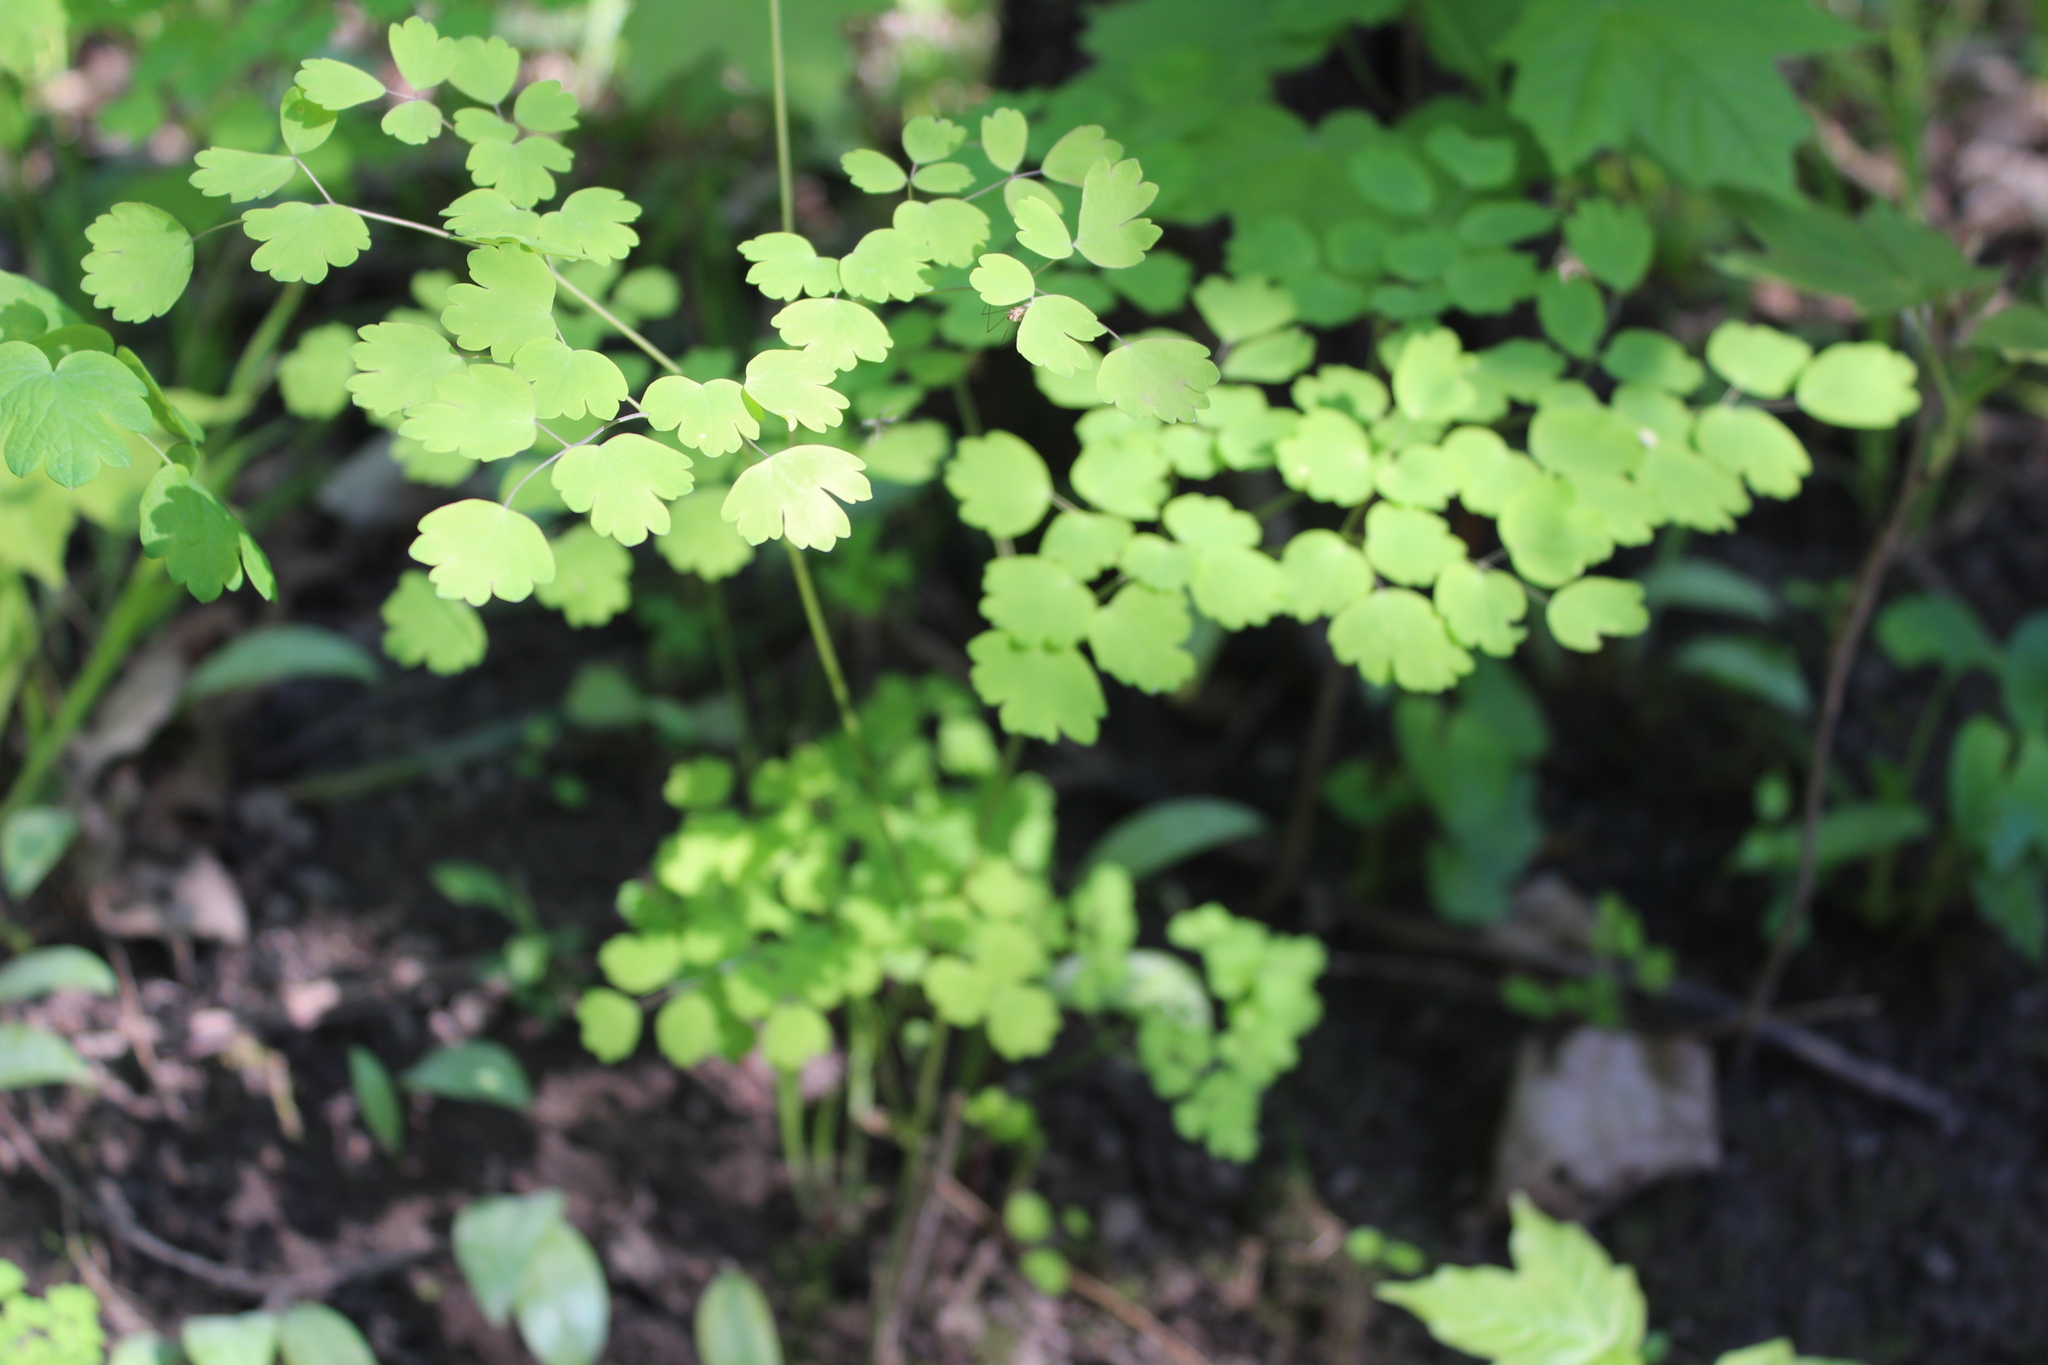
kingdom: Plantae
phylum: Tracheophyta
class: Magnoliopsida
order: Ranunculales
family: Ranunculaceae
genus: Thalictrum
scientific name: Thalictrum dioicum
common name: Early meadow-rue
